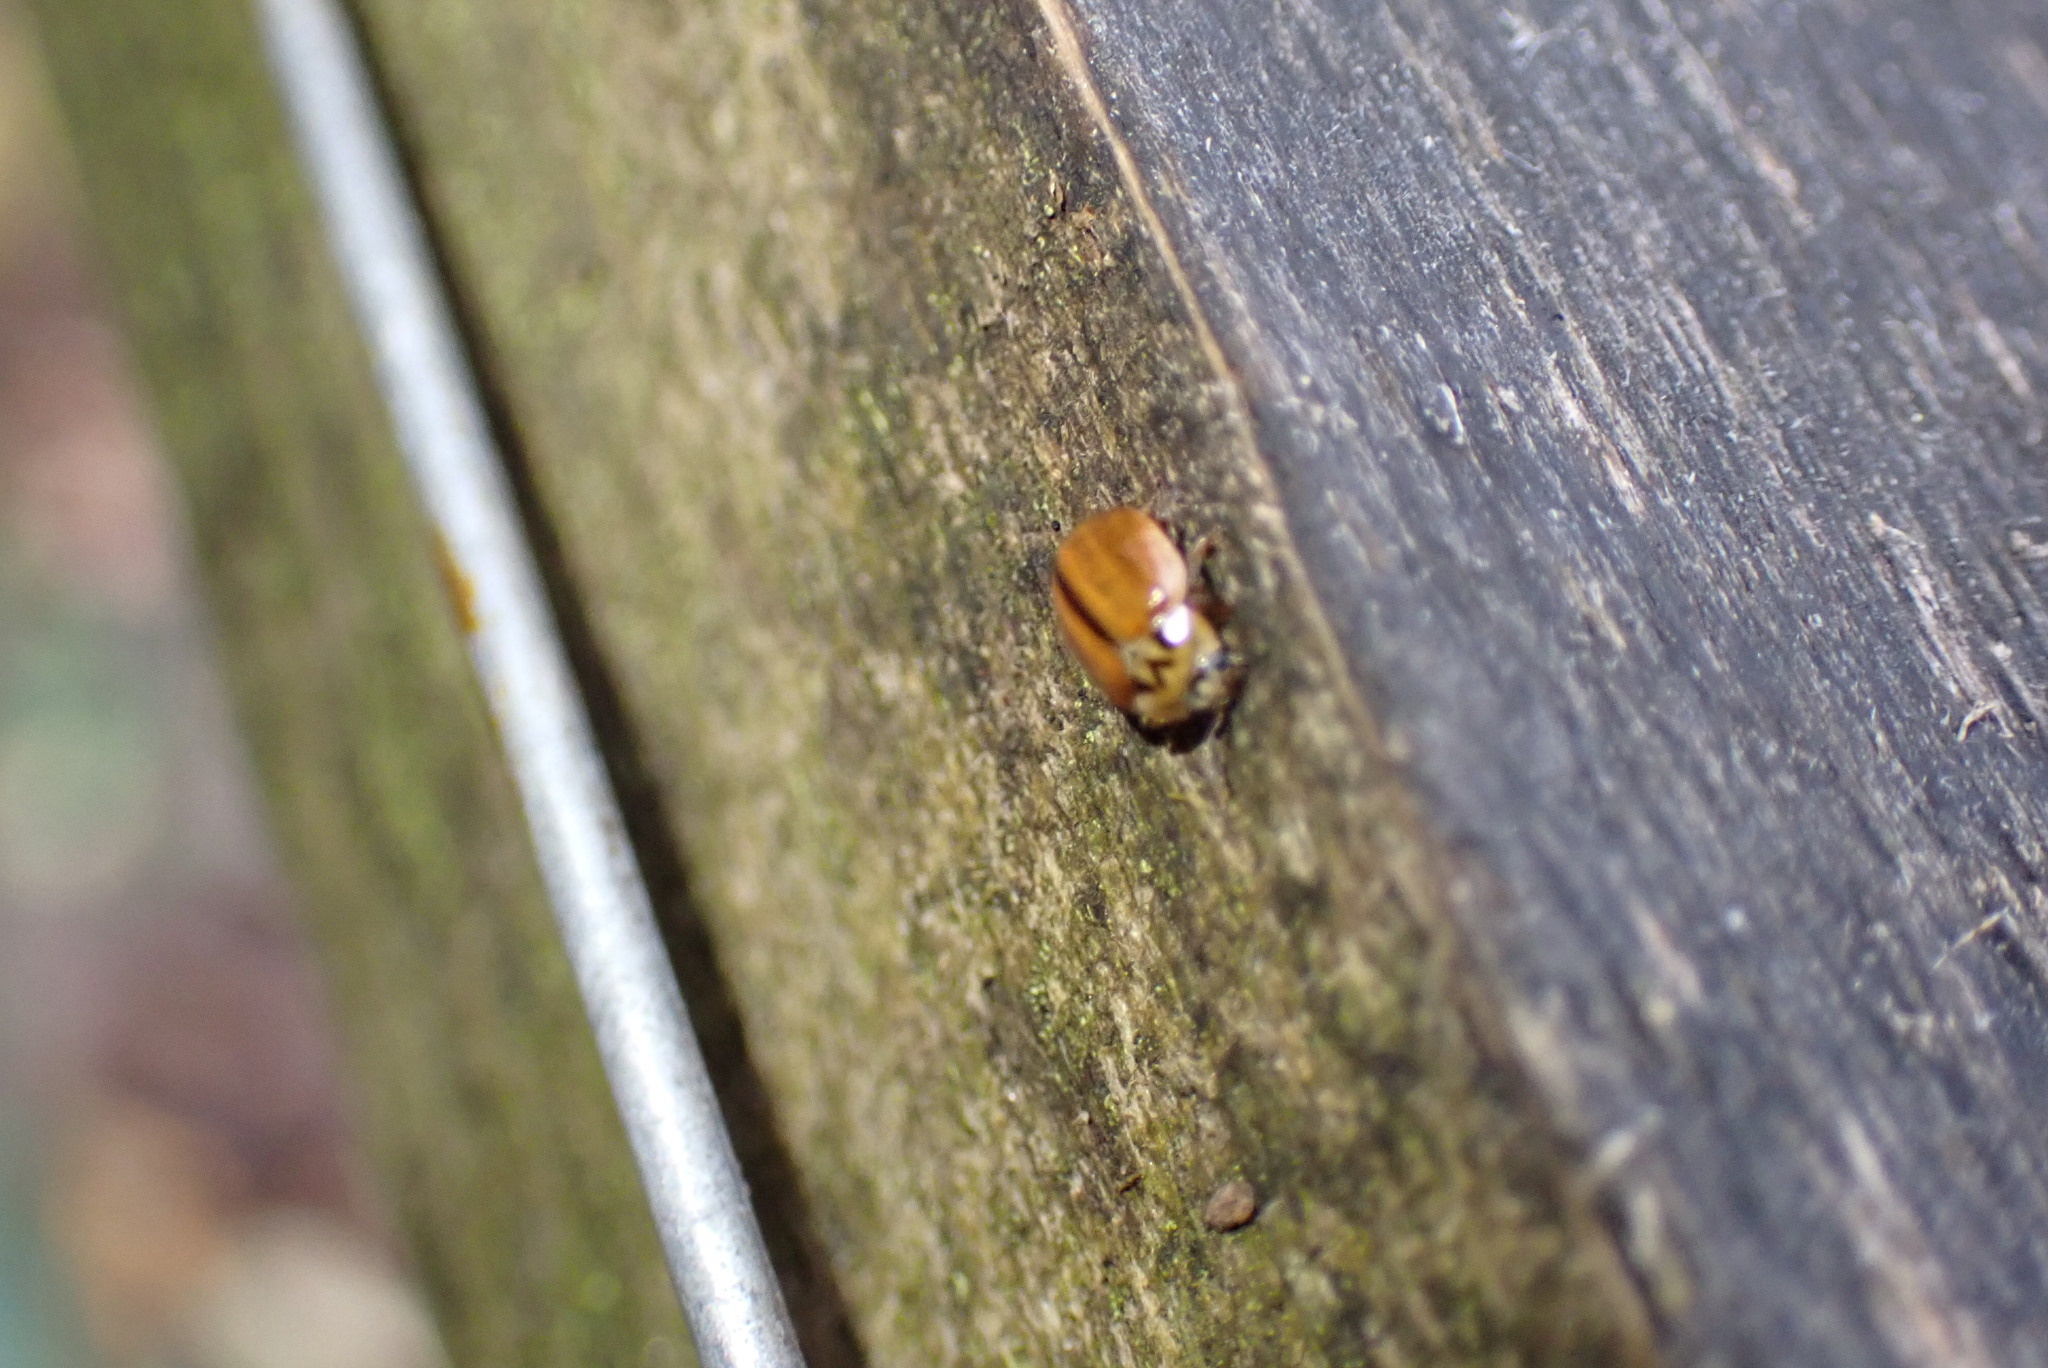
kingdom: Animalia
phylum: Arthropoda
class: Insecta
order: Coleoptera
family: Coccinellidae
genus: Aphidecta
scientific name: Aphidecta obliterata
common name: Larch ladybird
